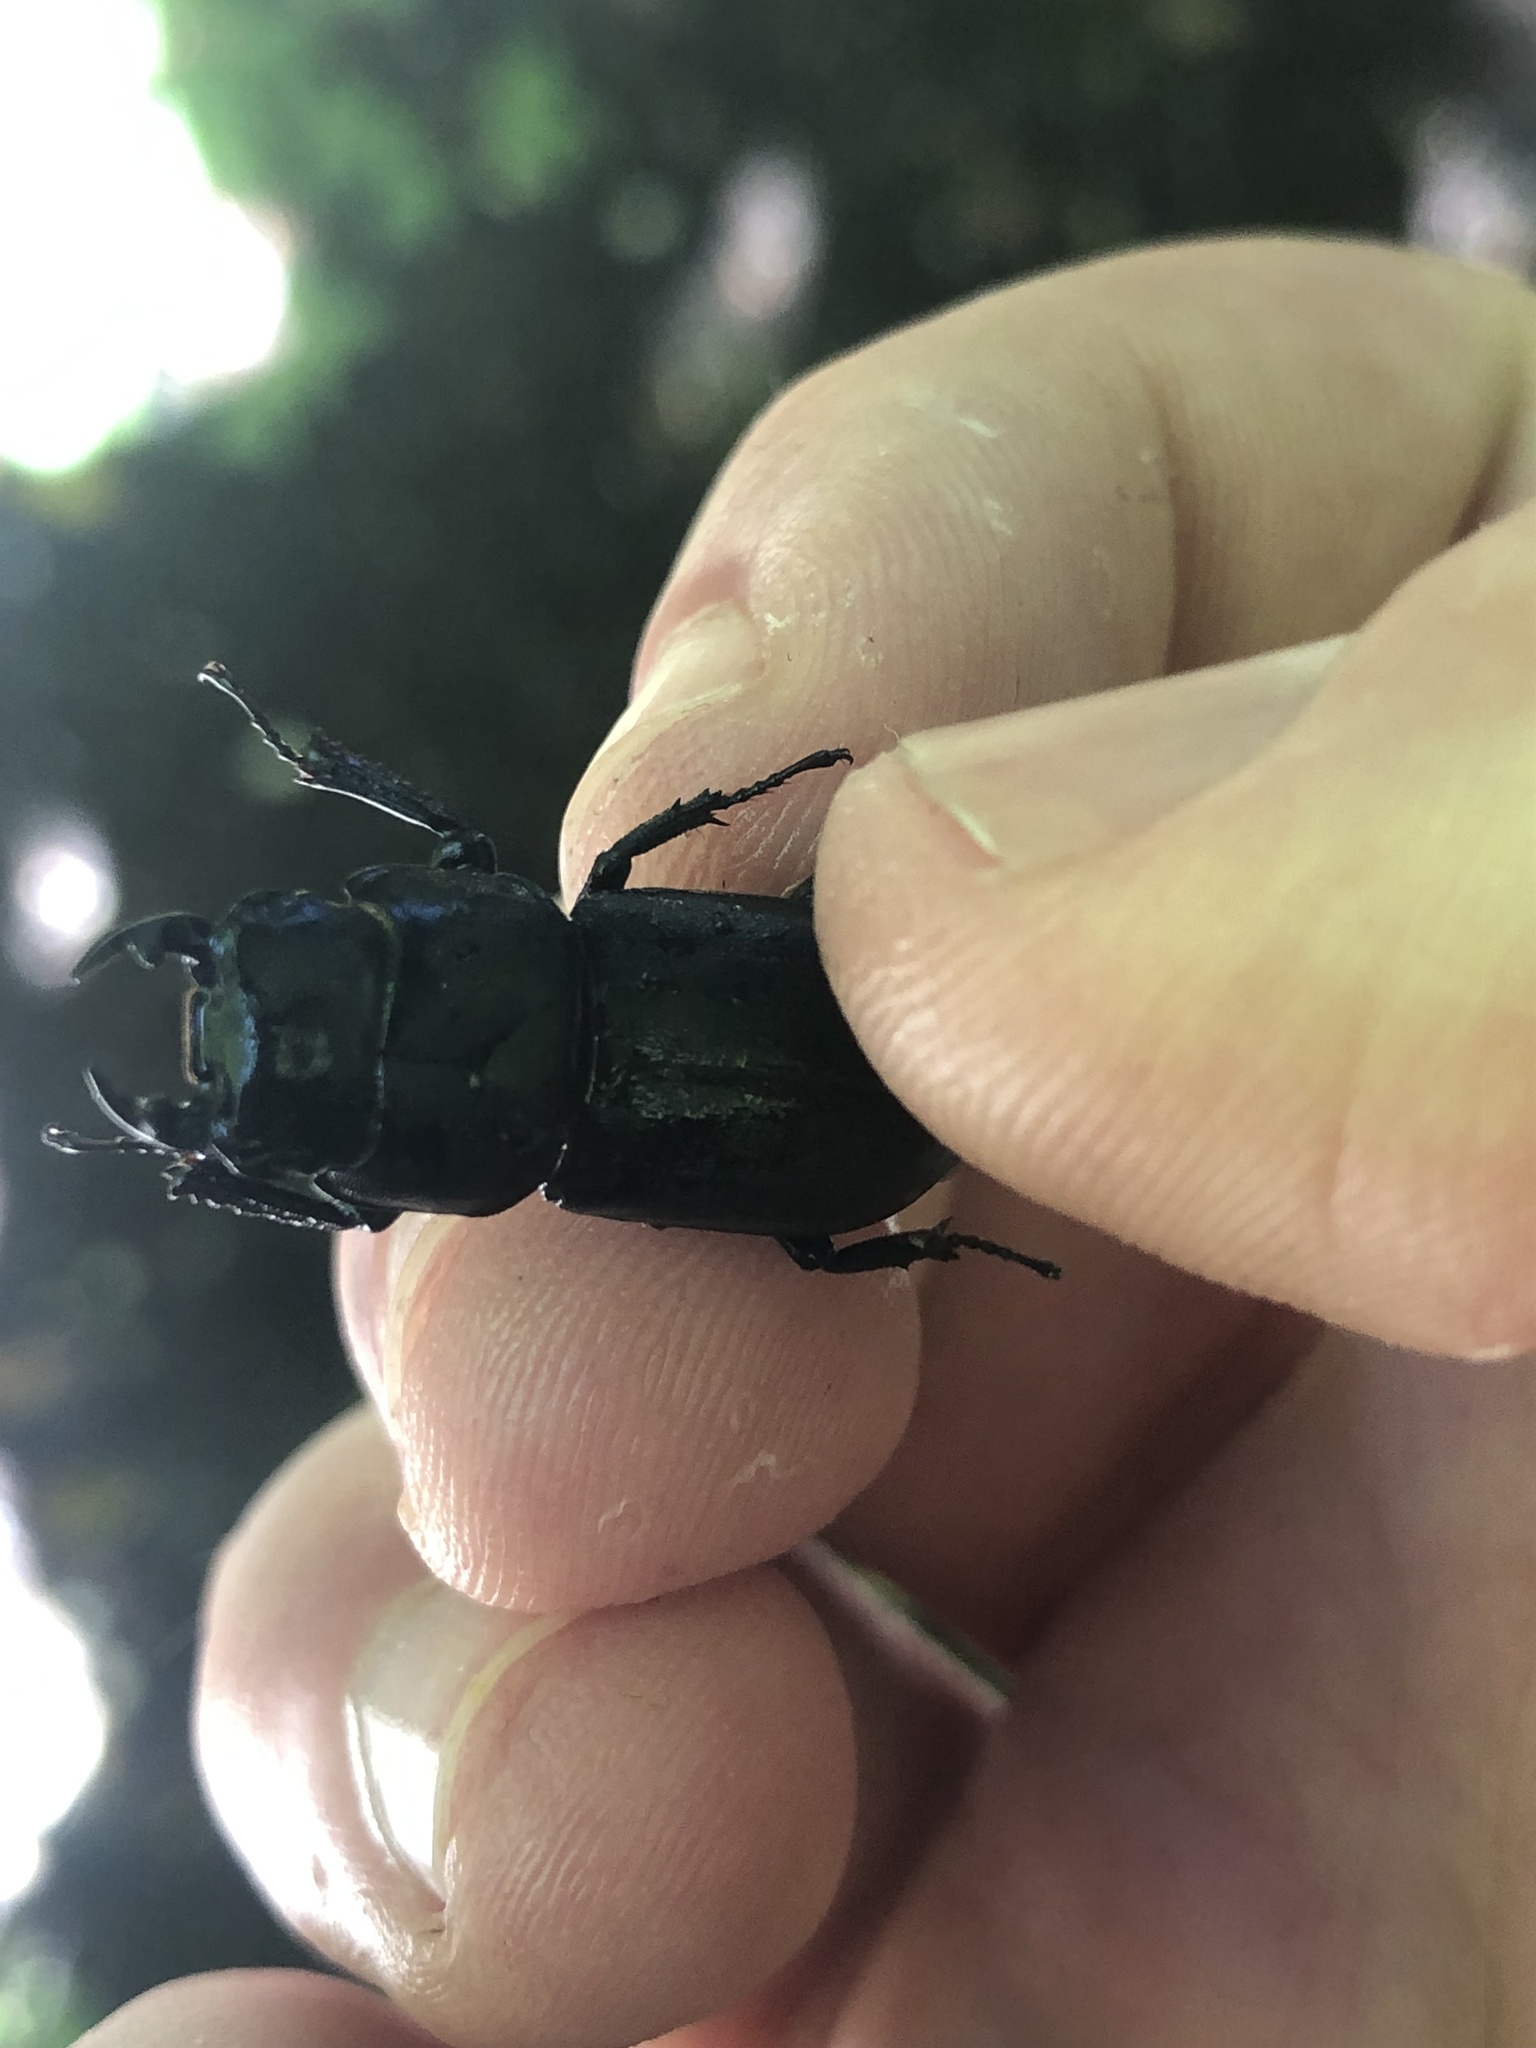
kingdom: Animalia
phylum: Arthropoda
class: Insecta
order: Coleoptera
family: Lucanidae
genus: Dorcus
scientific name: Dorcus parallelipipedus
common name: Lesser stag beetle
